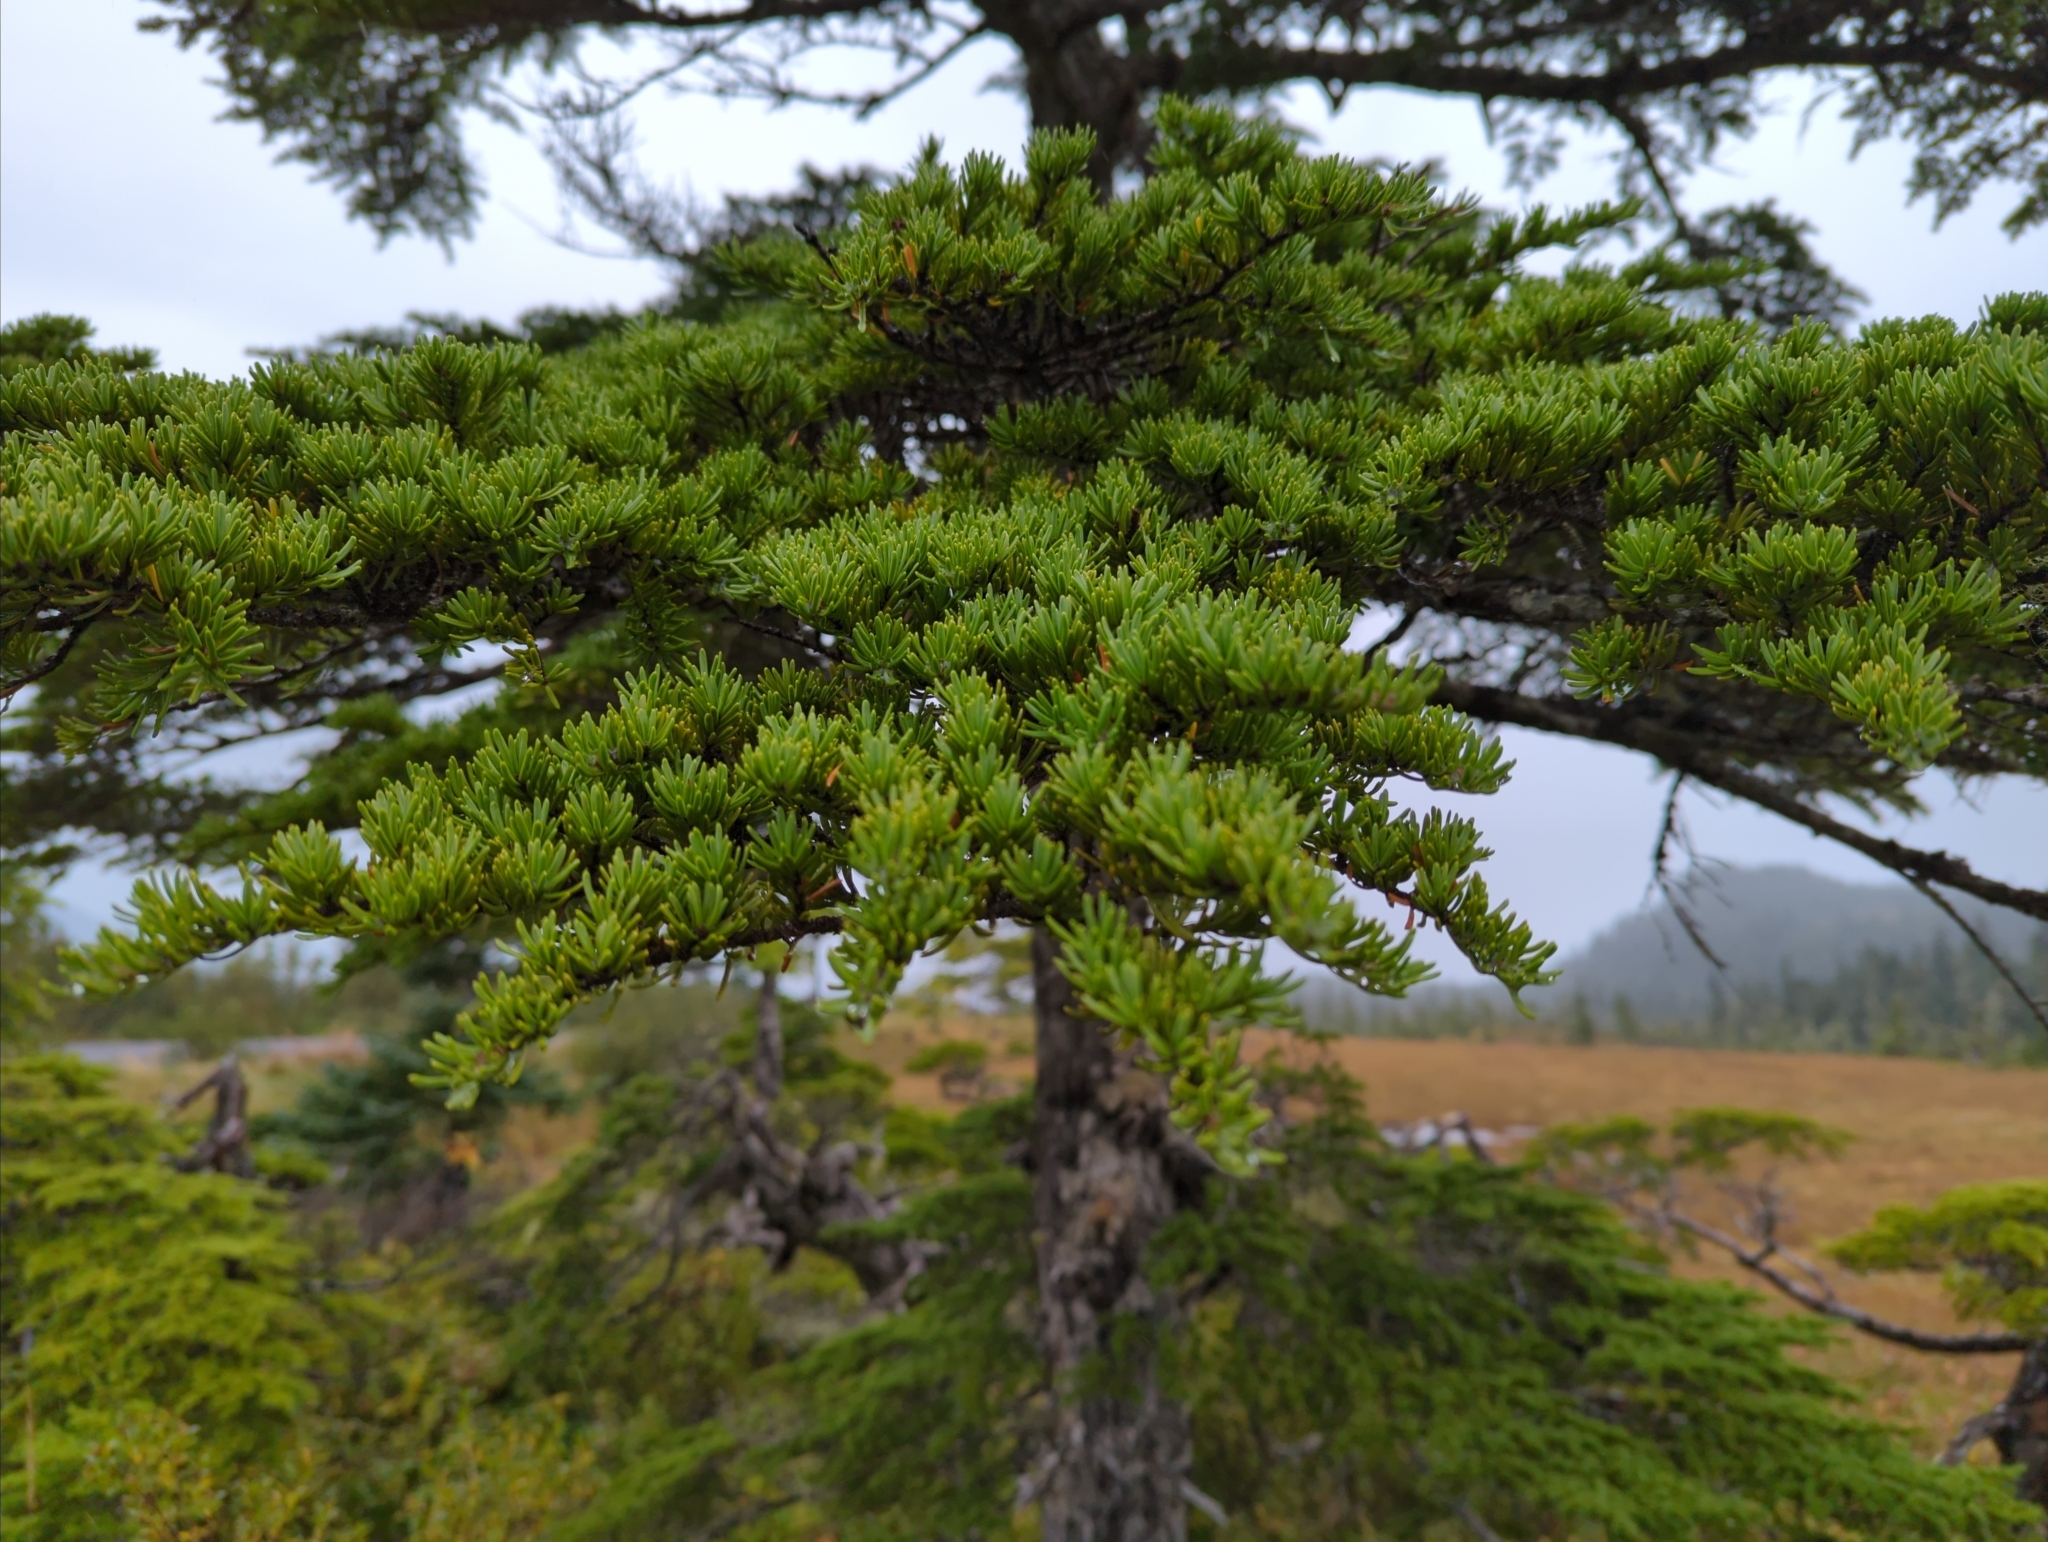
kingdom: Plantae
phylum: Tracheophyta
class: Pinopsida
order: Pinales
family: Pinaceae
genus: Tsuga
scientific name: Tsuga mertensiana
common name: Mountain hemlock
